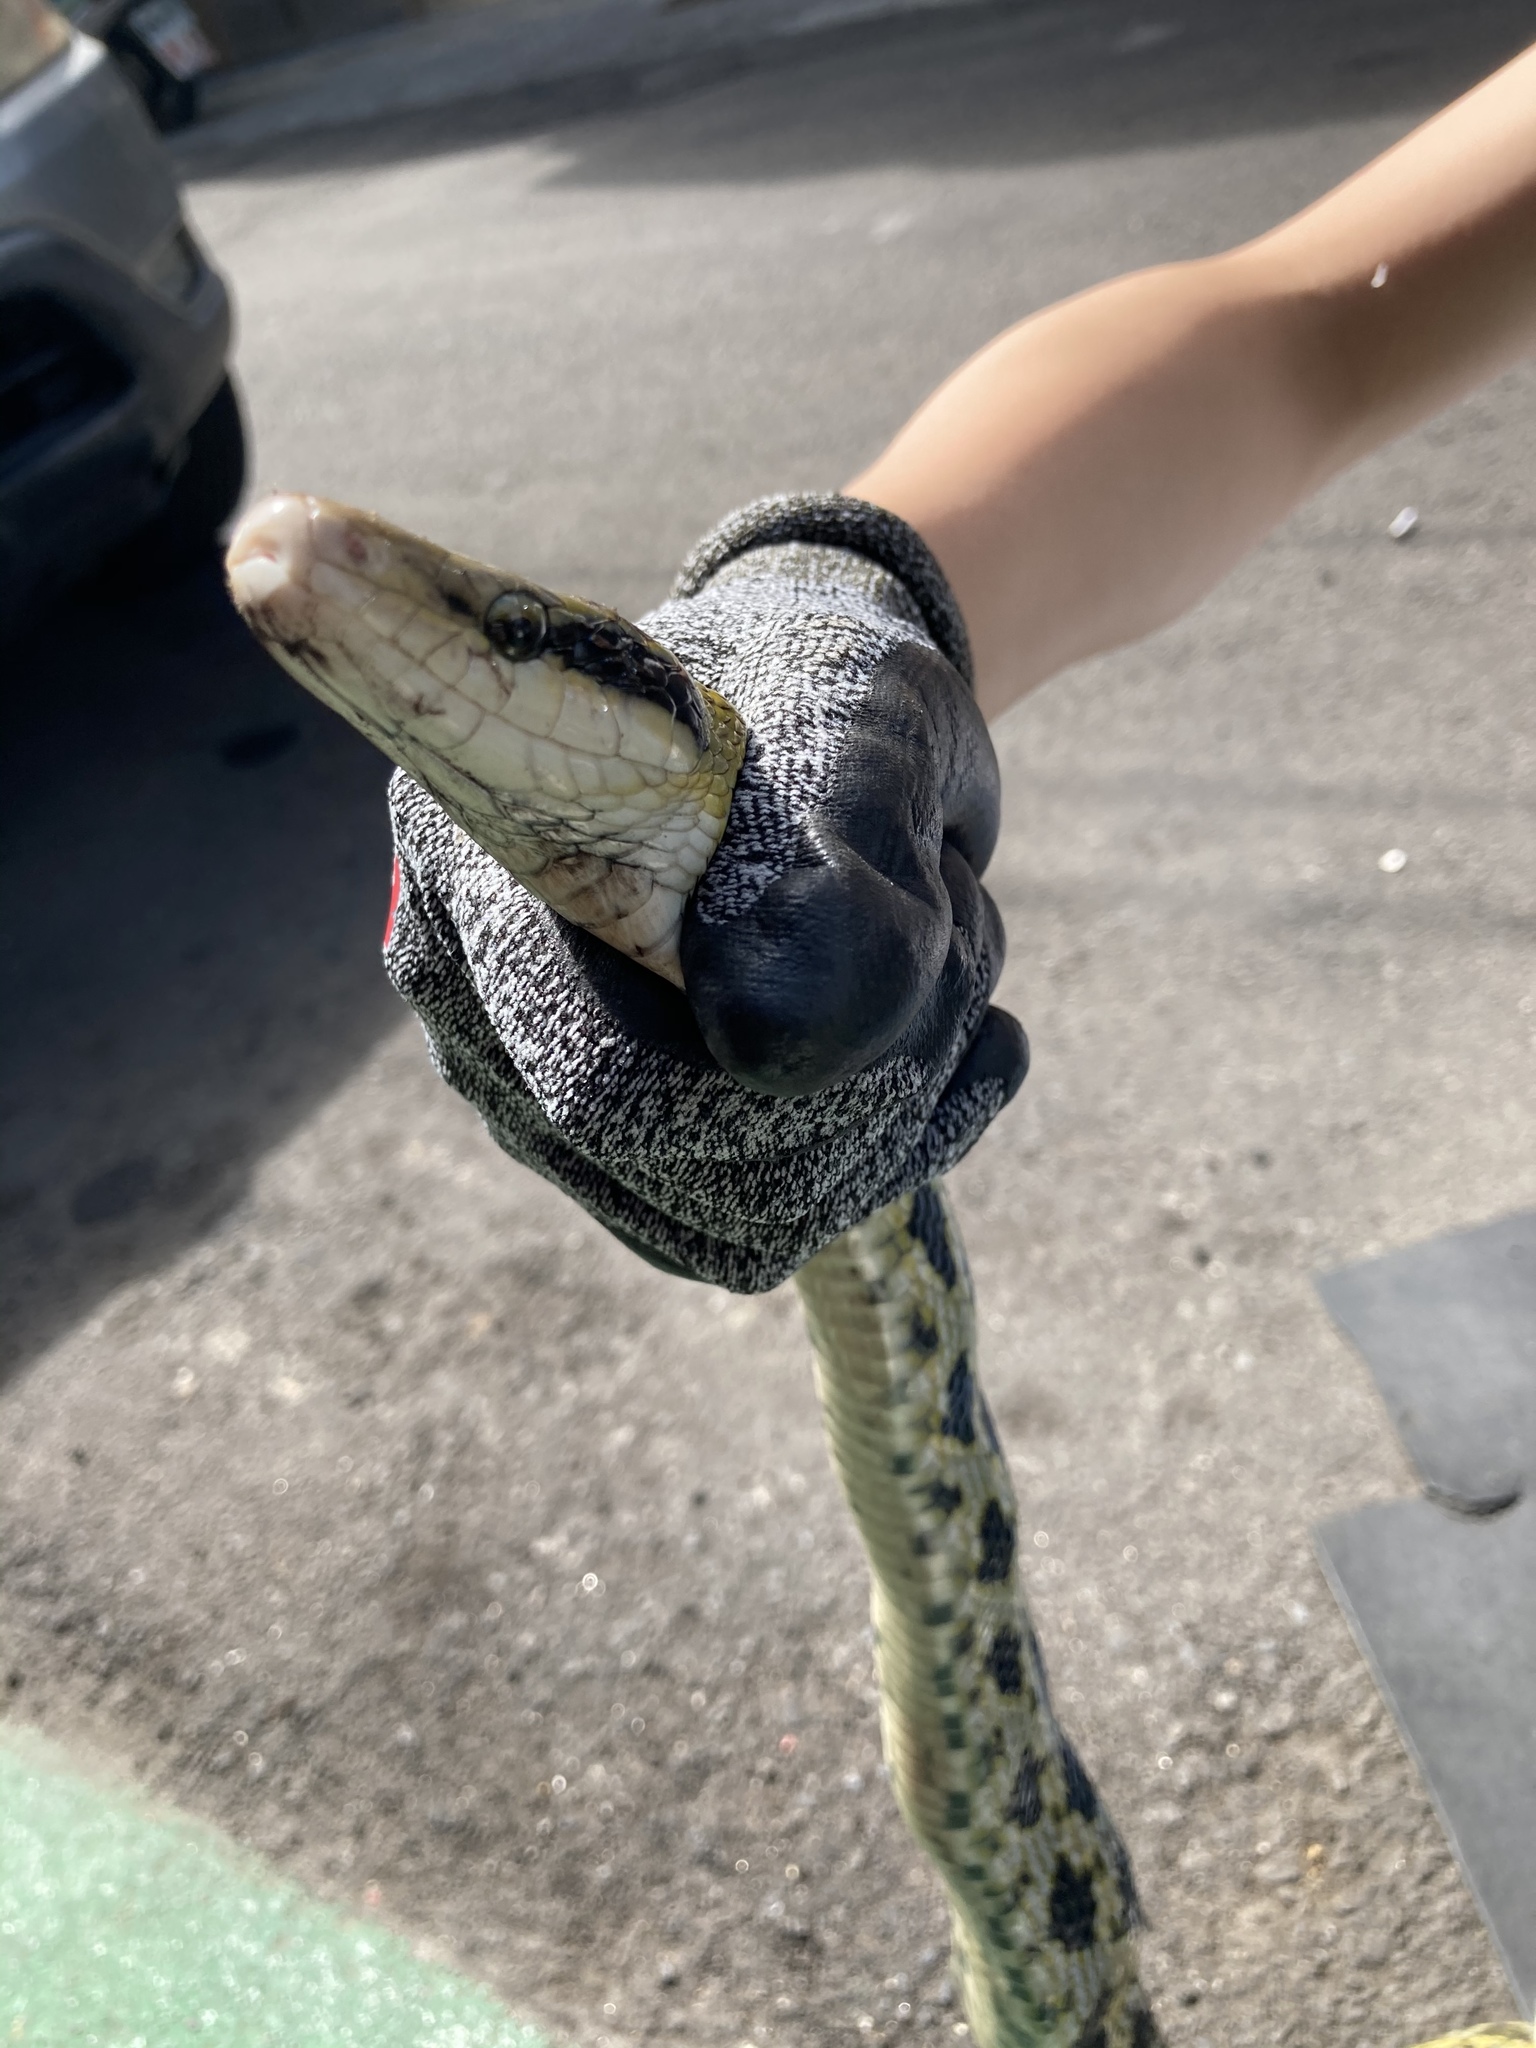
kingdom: Animalia
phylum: Chordata
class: Squamata
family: Colubridae
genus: Elaphe
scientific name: Elaphe taeniura
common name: Beauty snake
